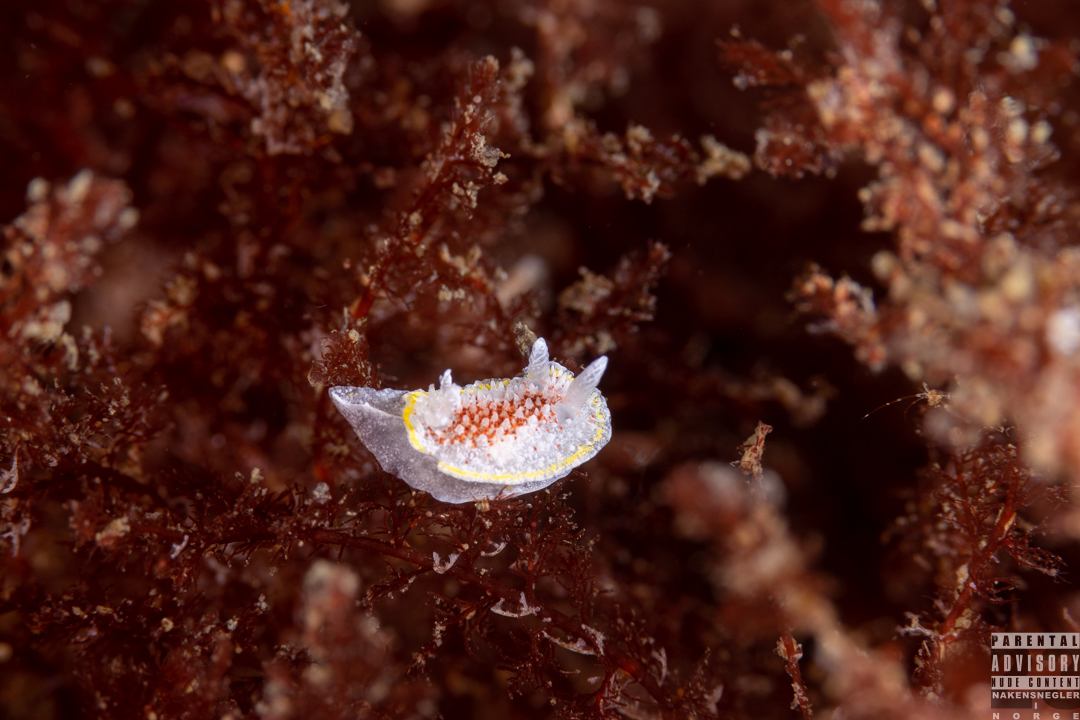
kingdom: Animalia
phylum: Mollusca
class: Gastropoda
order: Nudibranchia
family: Calycidorididae
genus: Diaphorodoris
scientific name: Diaphorodoris luteocincta
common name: Fried egg nudibranch
